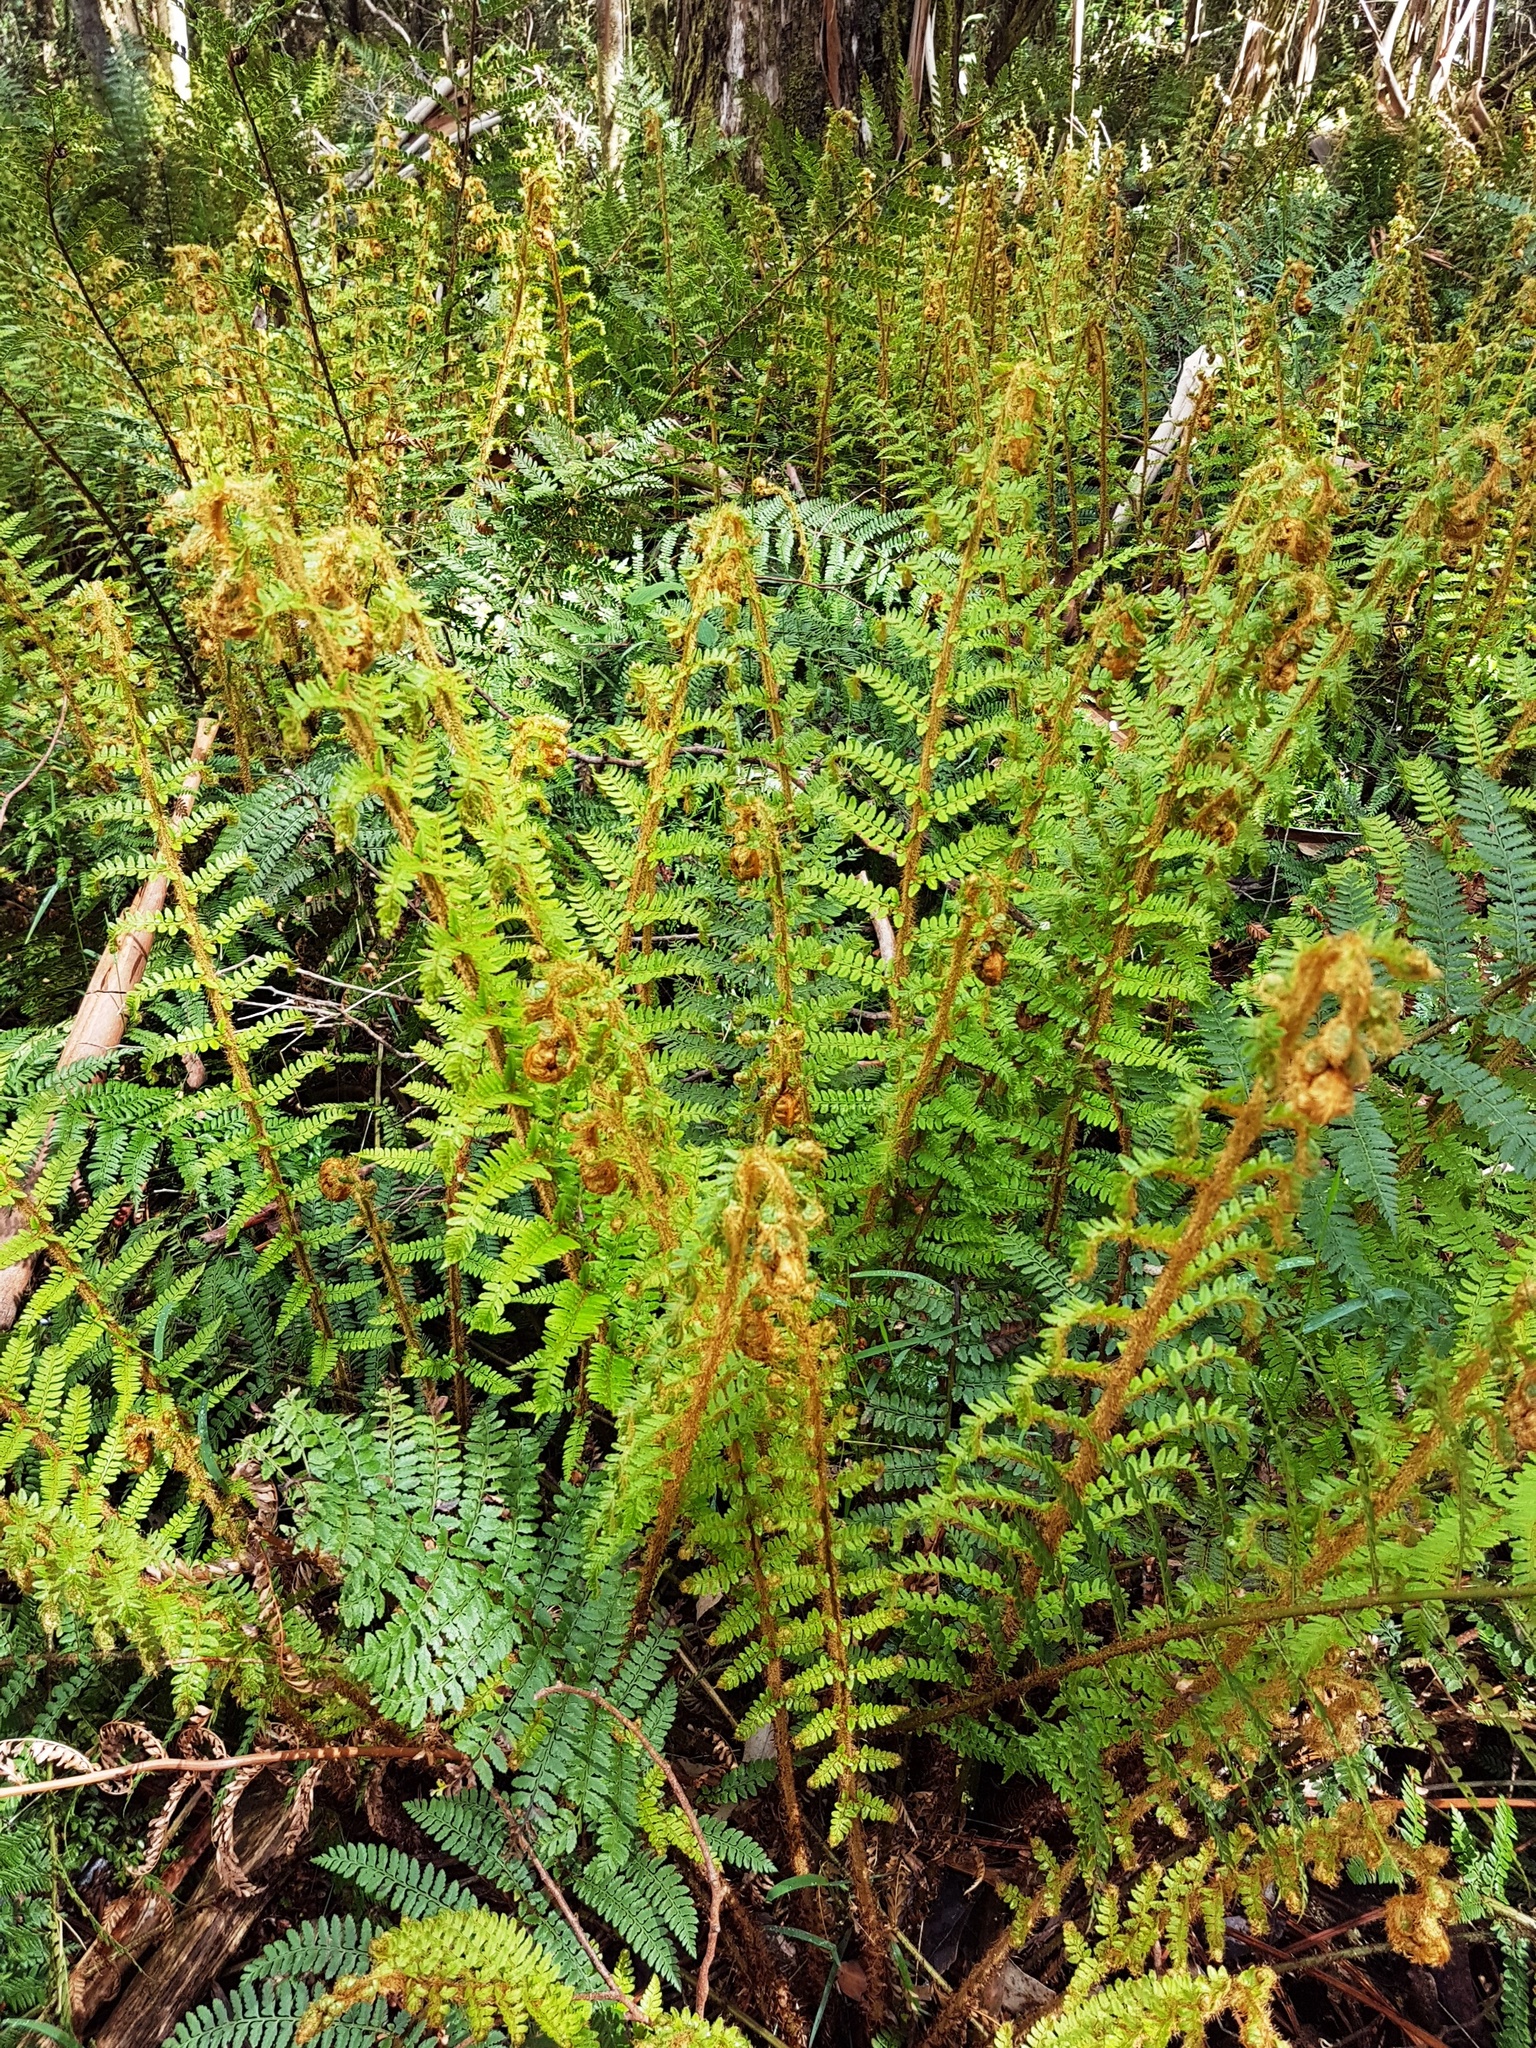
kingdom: Plantae
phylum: Tracheophyta
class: Polypodiopsida
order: Polypodiales
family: Dryopteridaceae
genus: Polystichum
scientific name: Polystichum proliferum
